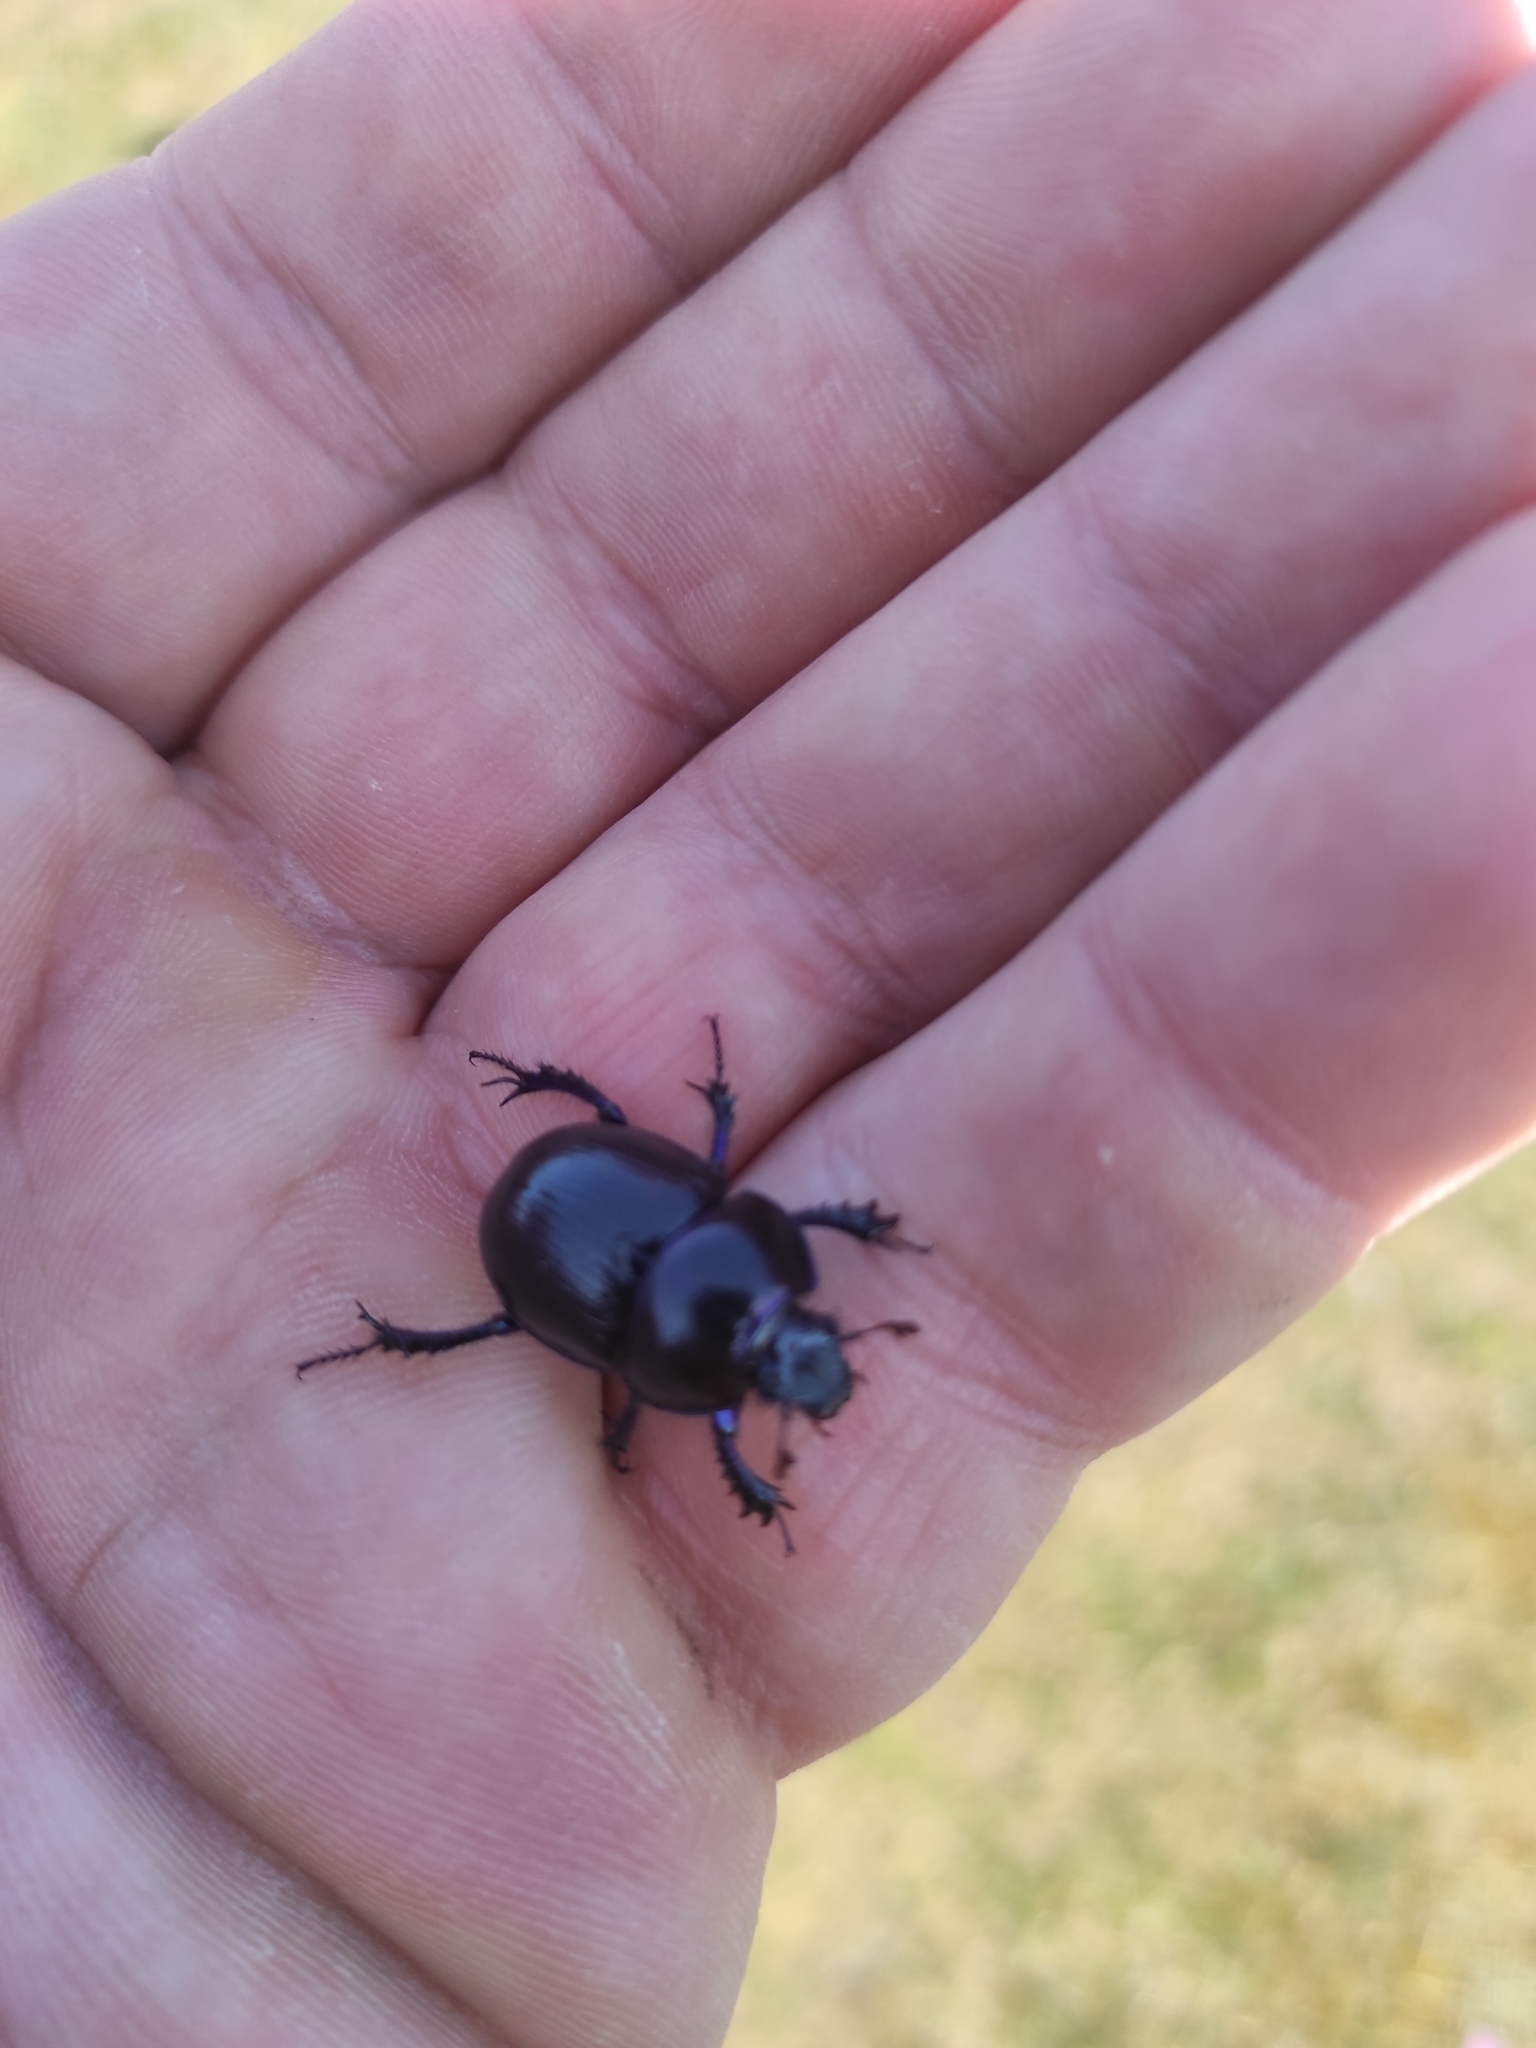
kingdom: Animalia
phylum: Arthropoda
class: Insecta
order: Coleoptera
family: Geotrupidae
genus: Anoplotrupes
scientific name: Anoplotrupes stercorosus
